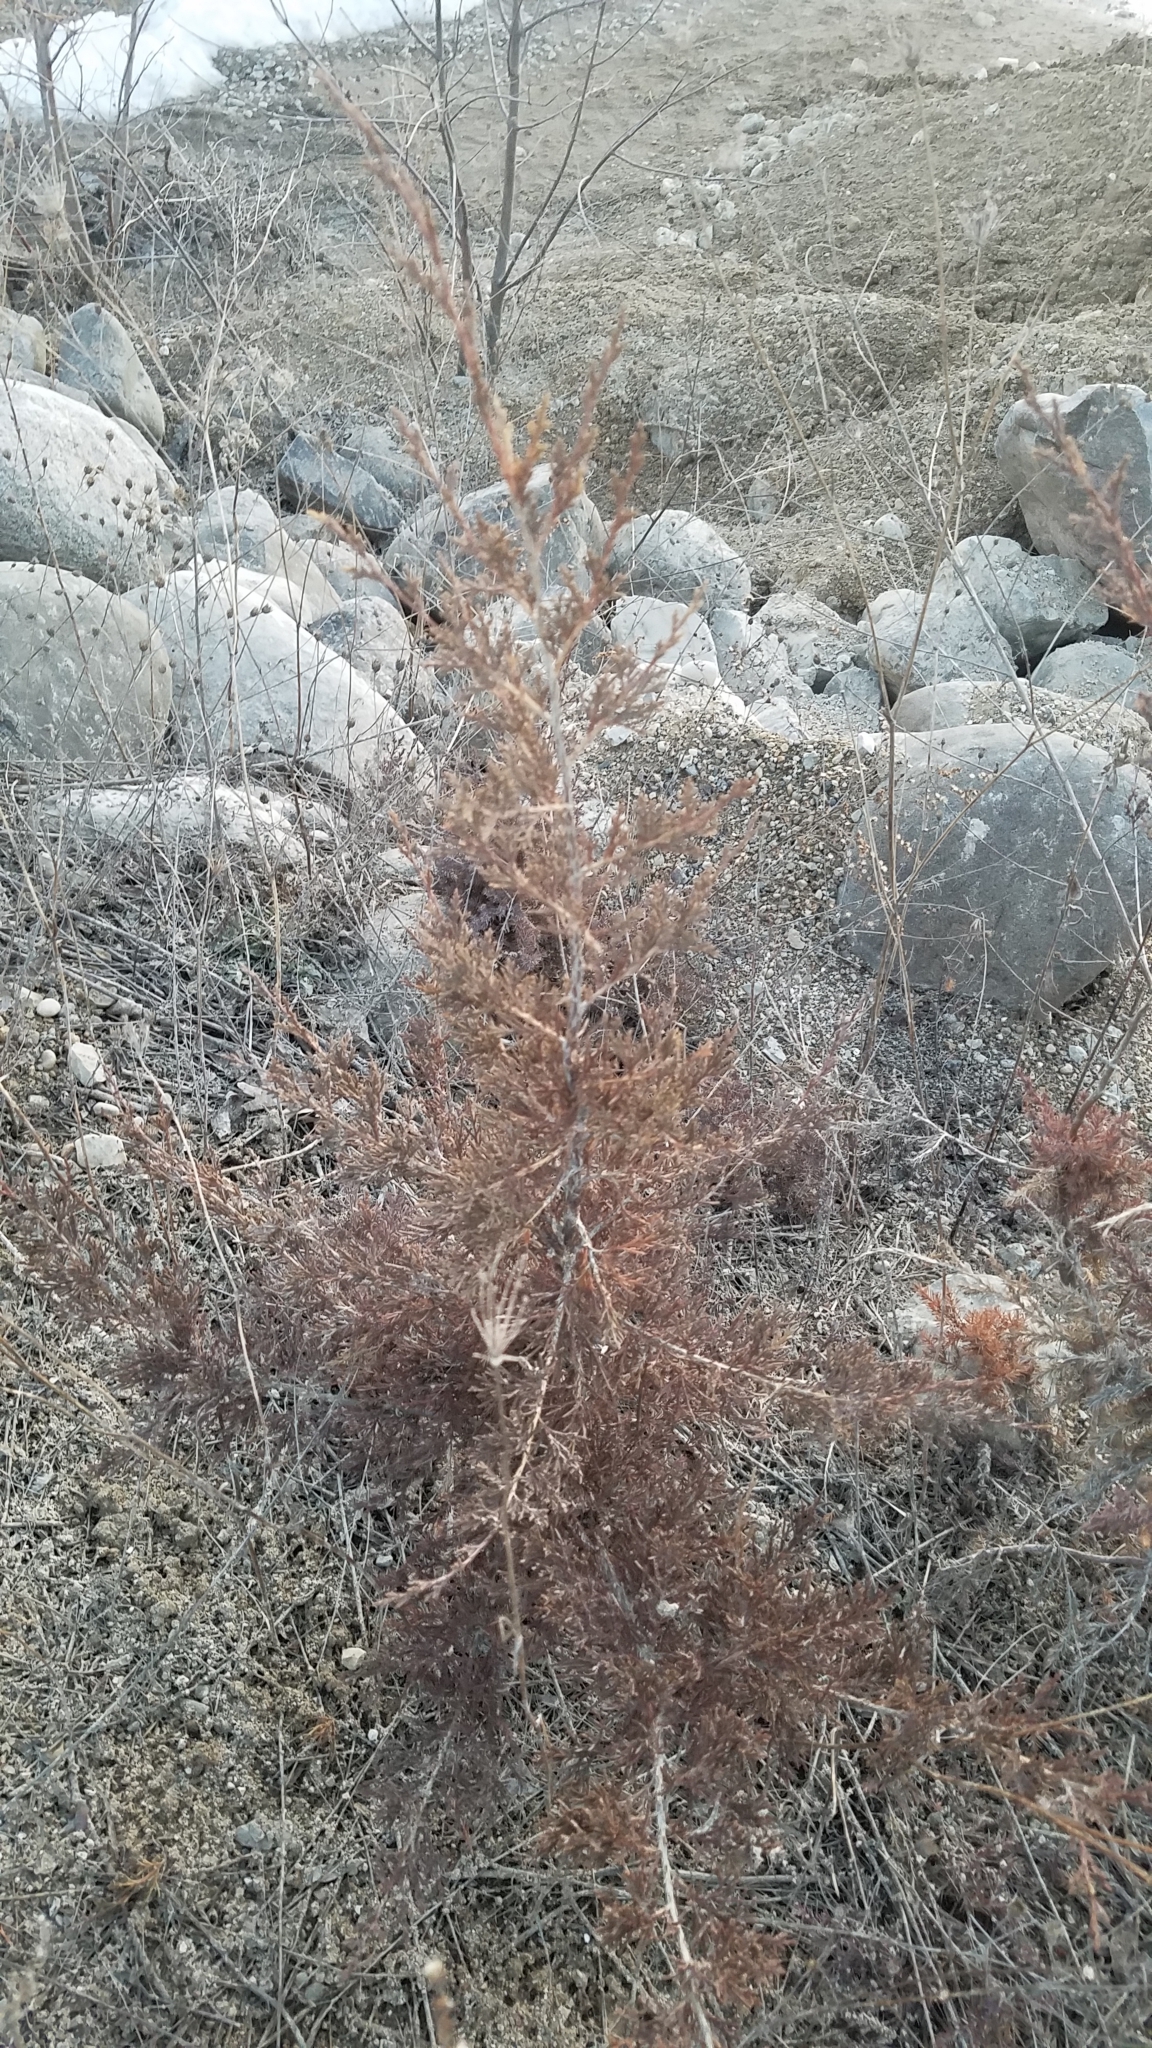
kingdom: Plantae
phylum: Tracheophyta
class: Pinopsida
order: Pinales
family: Cupressaceae
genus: Juniperus
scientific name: Juniperus virginiana
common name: Red juniper
